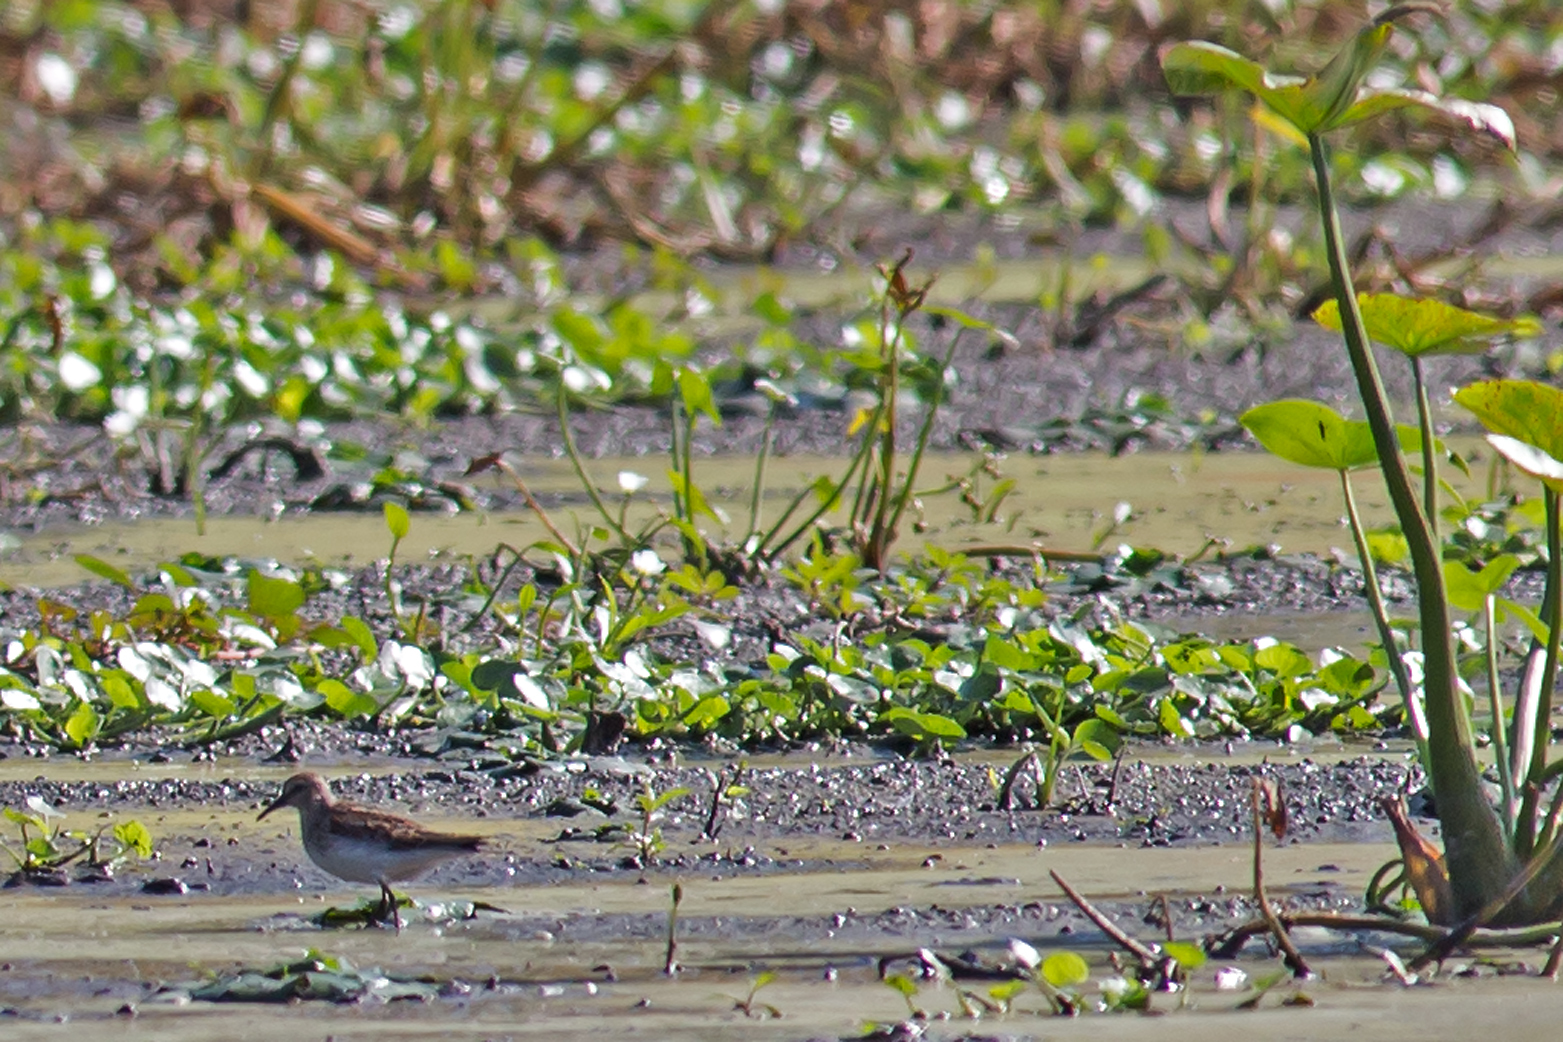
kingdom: Animalia
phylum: Chordata
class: Aves
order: Charadriiformes
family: Scolopacidae
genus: Calidris
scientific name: Calidris minutilla
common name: Least sandpiper
